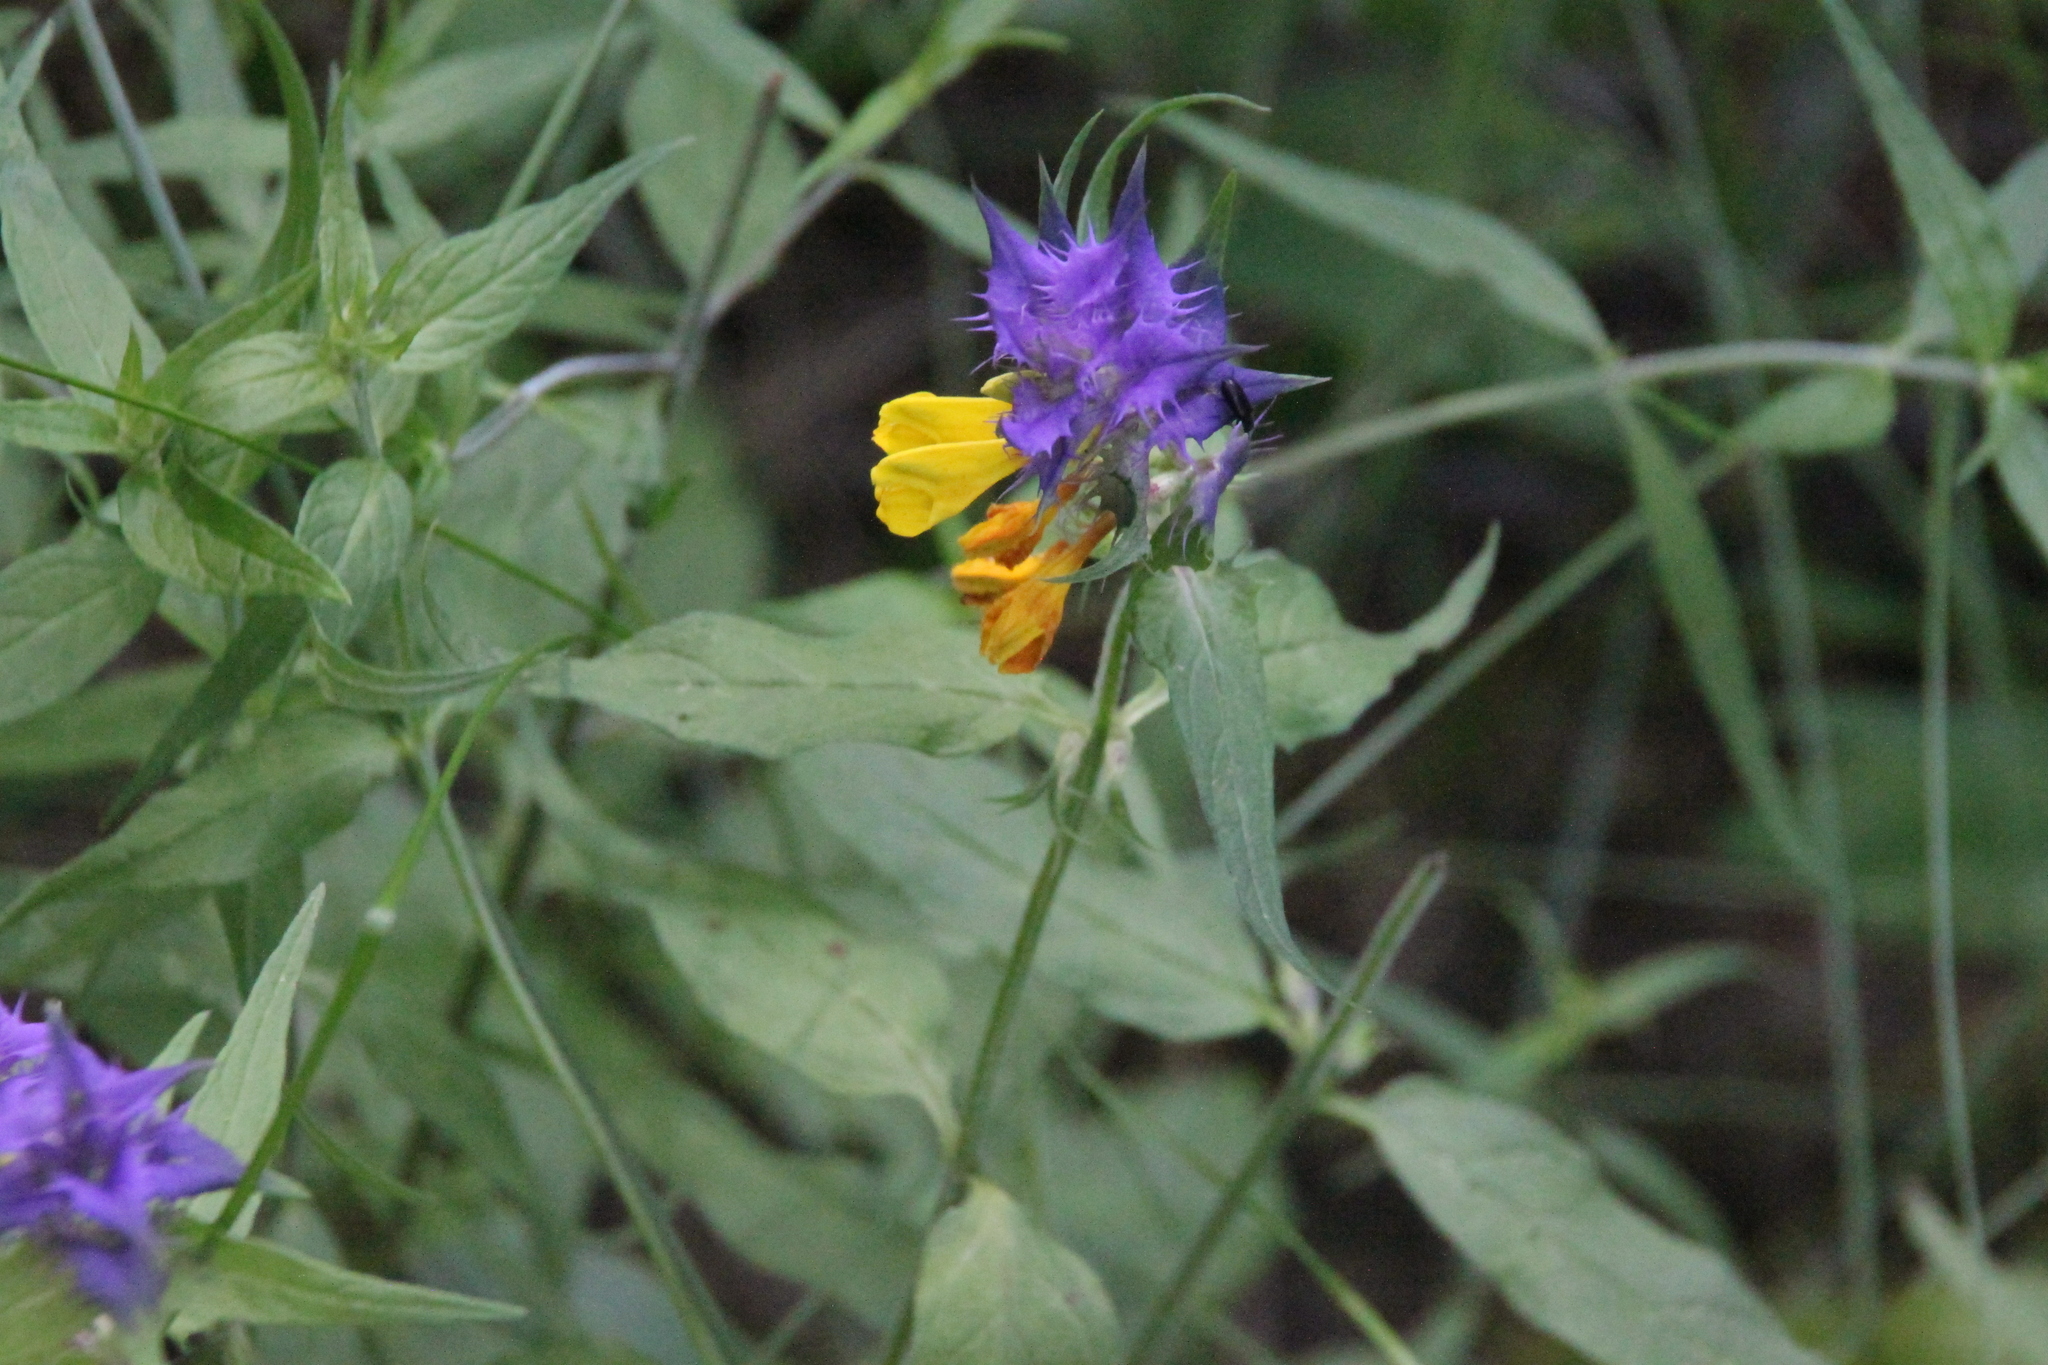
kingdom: Plantae
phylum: Tracheophyta
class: Magnoliopsida
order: Lamiales
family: Orobanchaceae
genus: Melampyrum
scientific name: Melampyrum nemorosum
